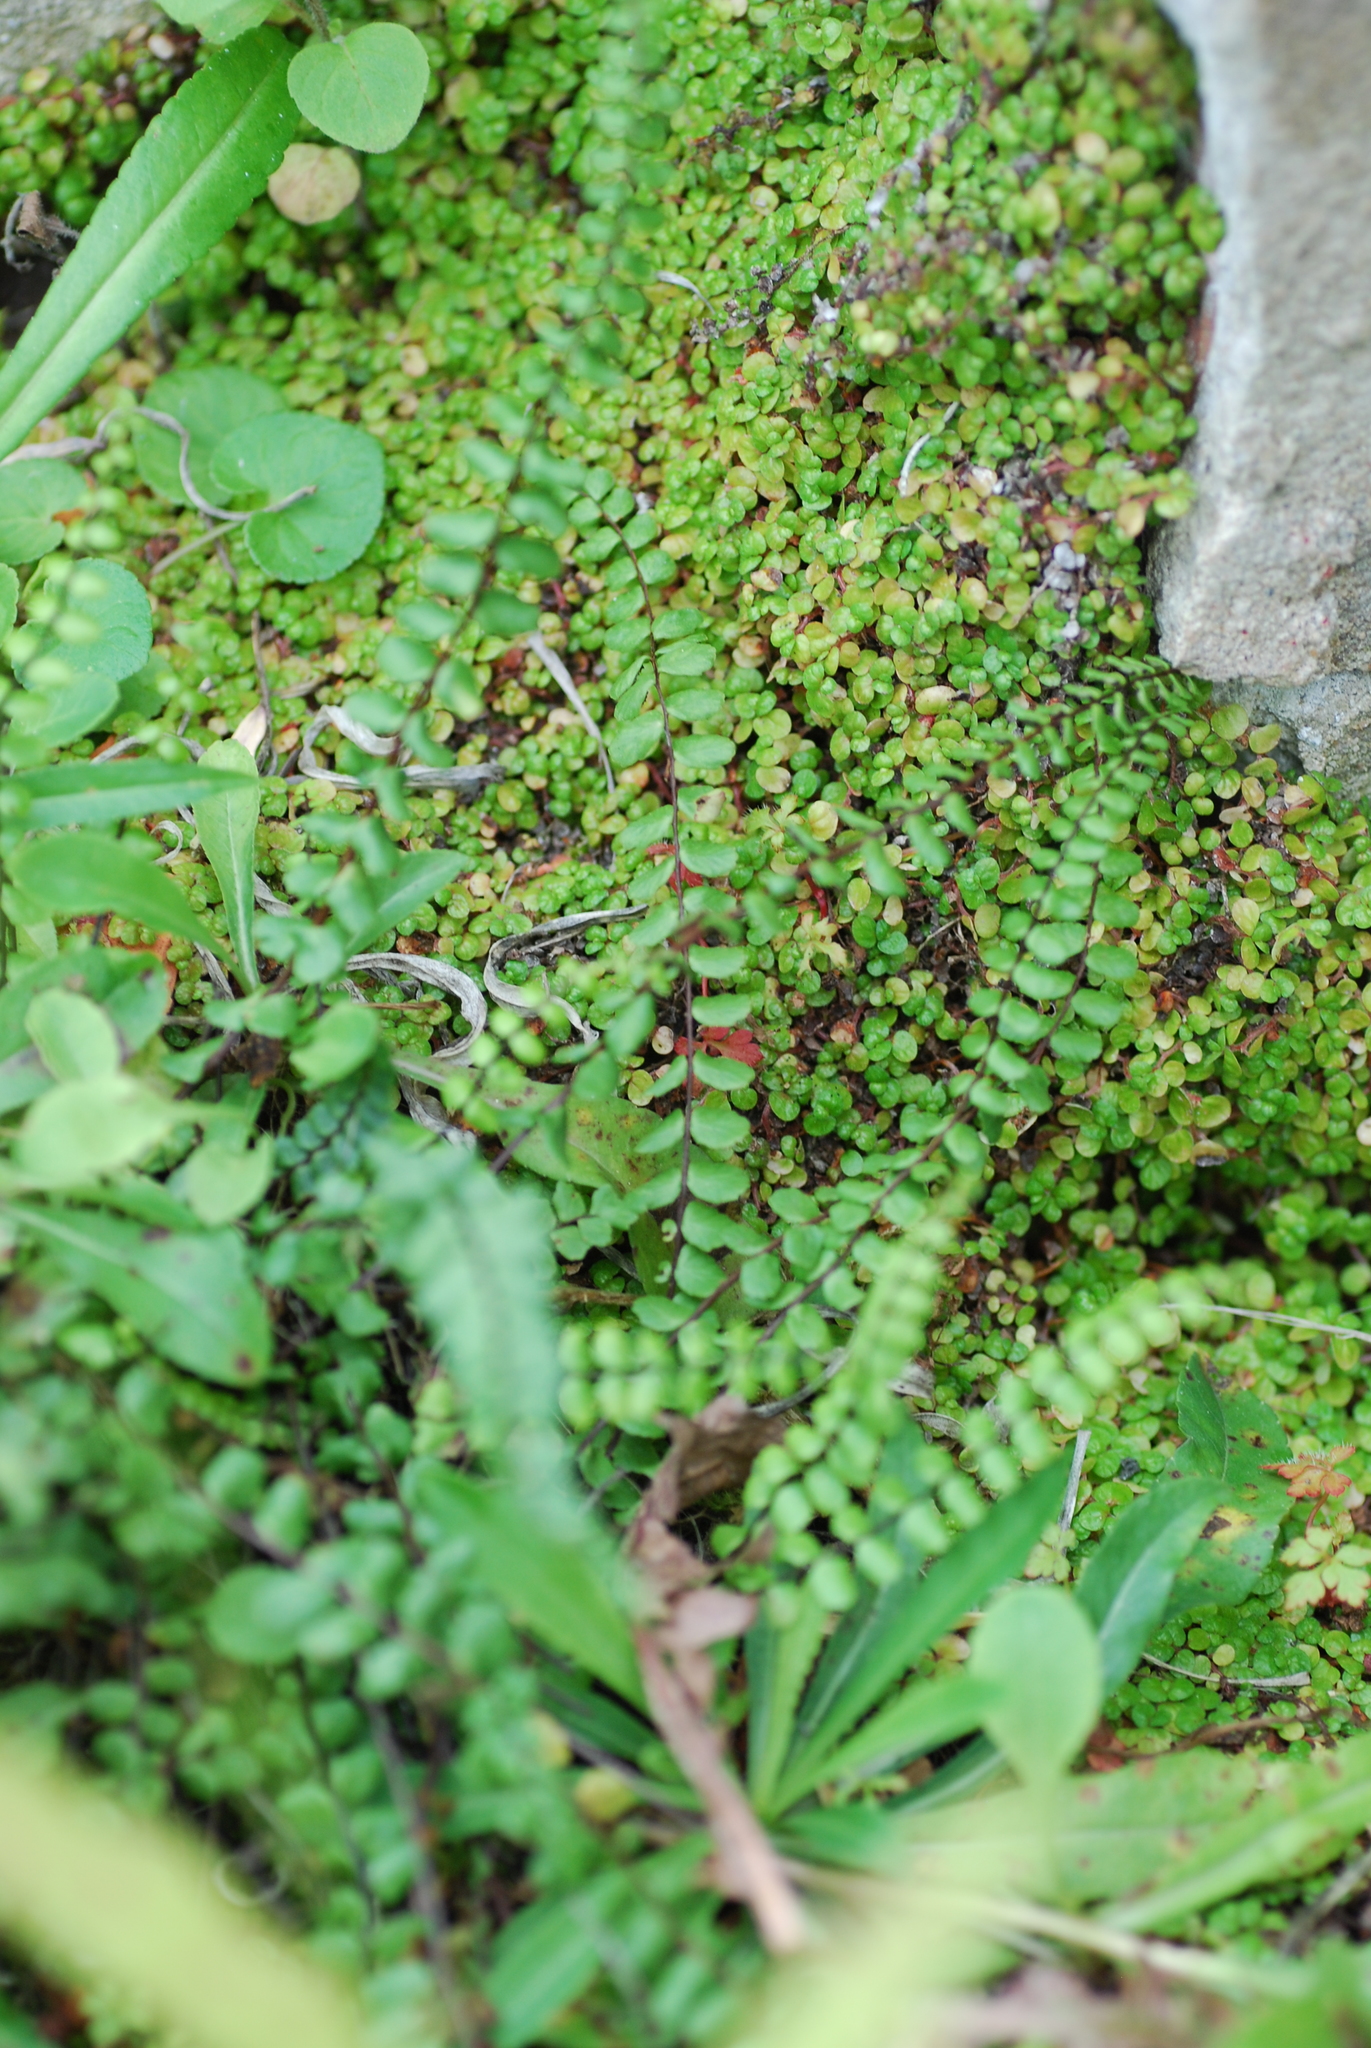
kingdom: Plantae
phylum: Tracheophyta
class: Polypodiopsida
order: Polypodiales
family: Aspleniaceae
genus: Asplenium
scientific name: Asplenium trichomanes
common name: Maidenhair spleenwort
